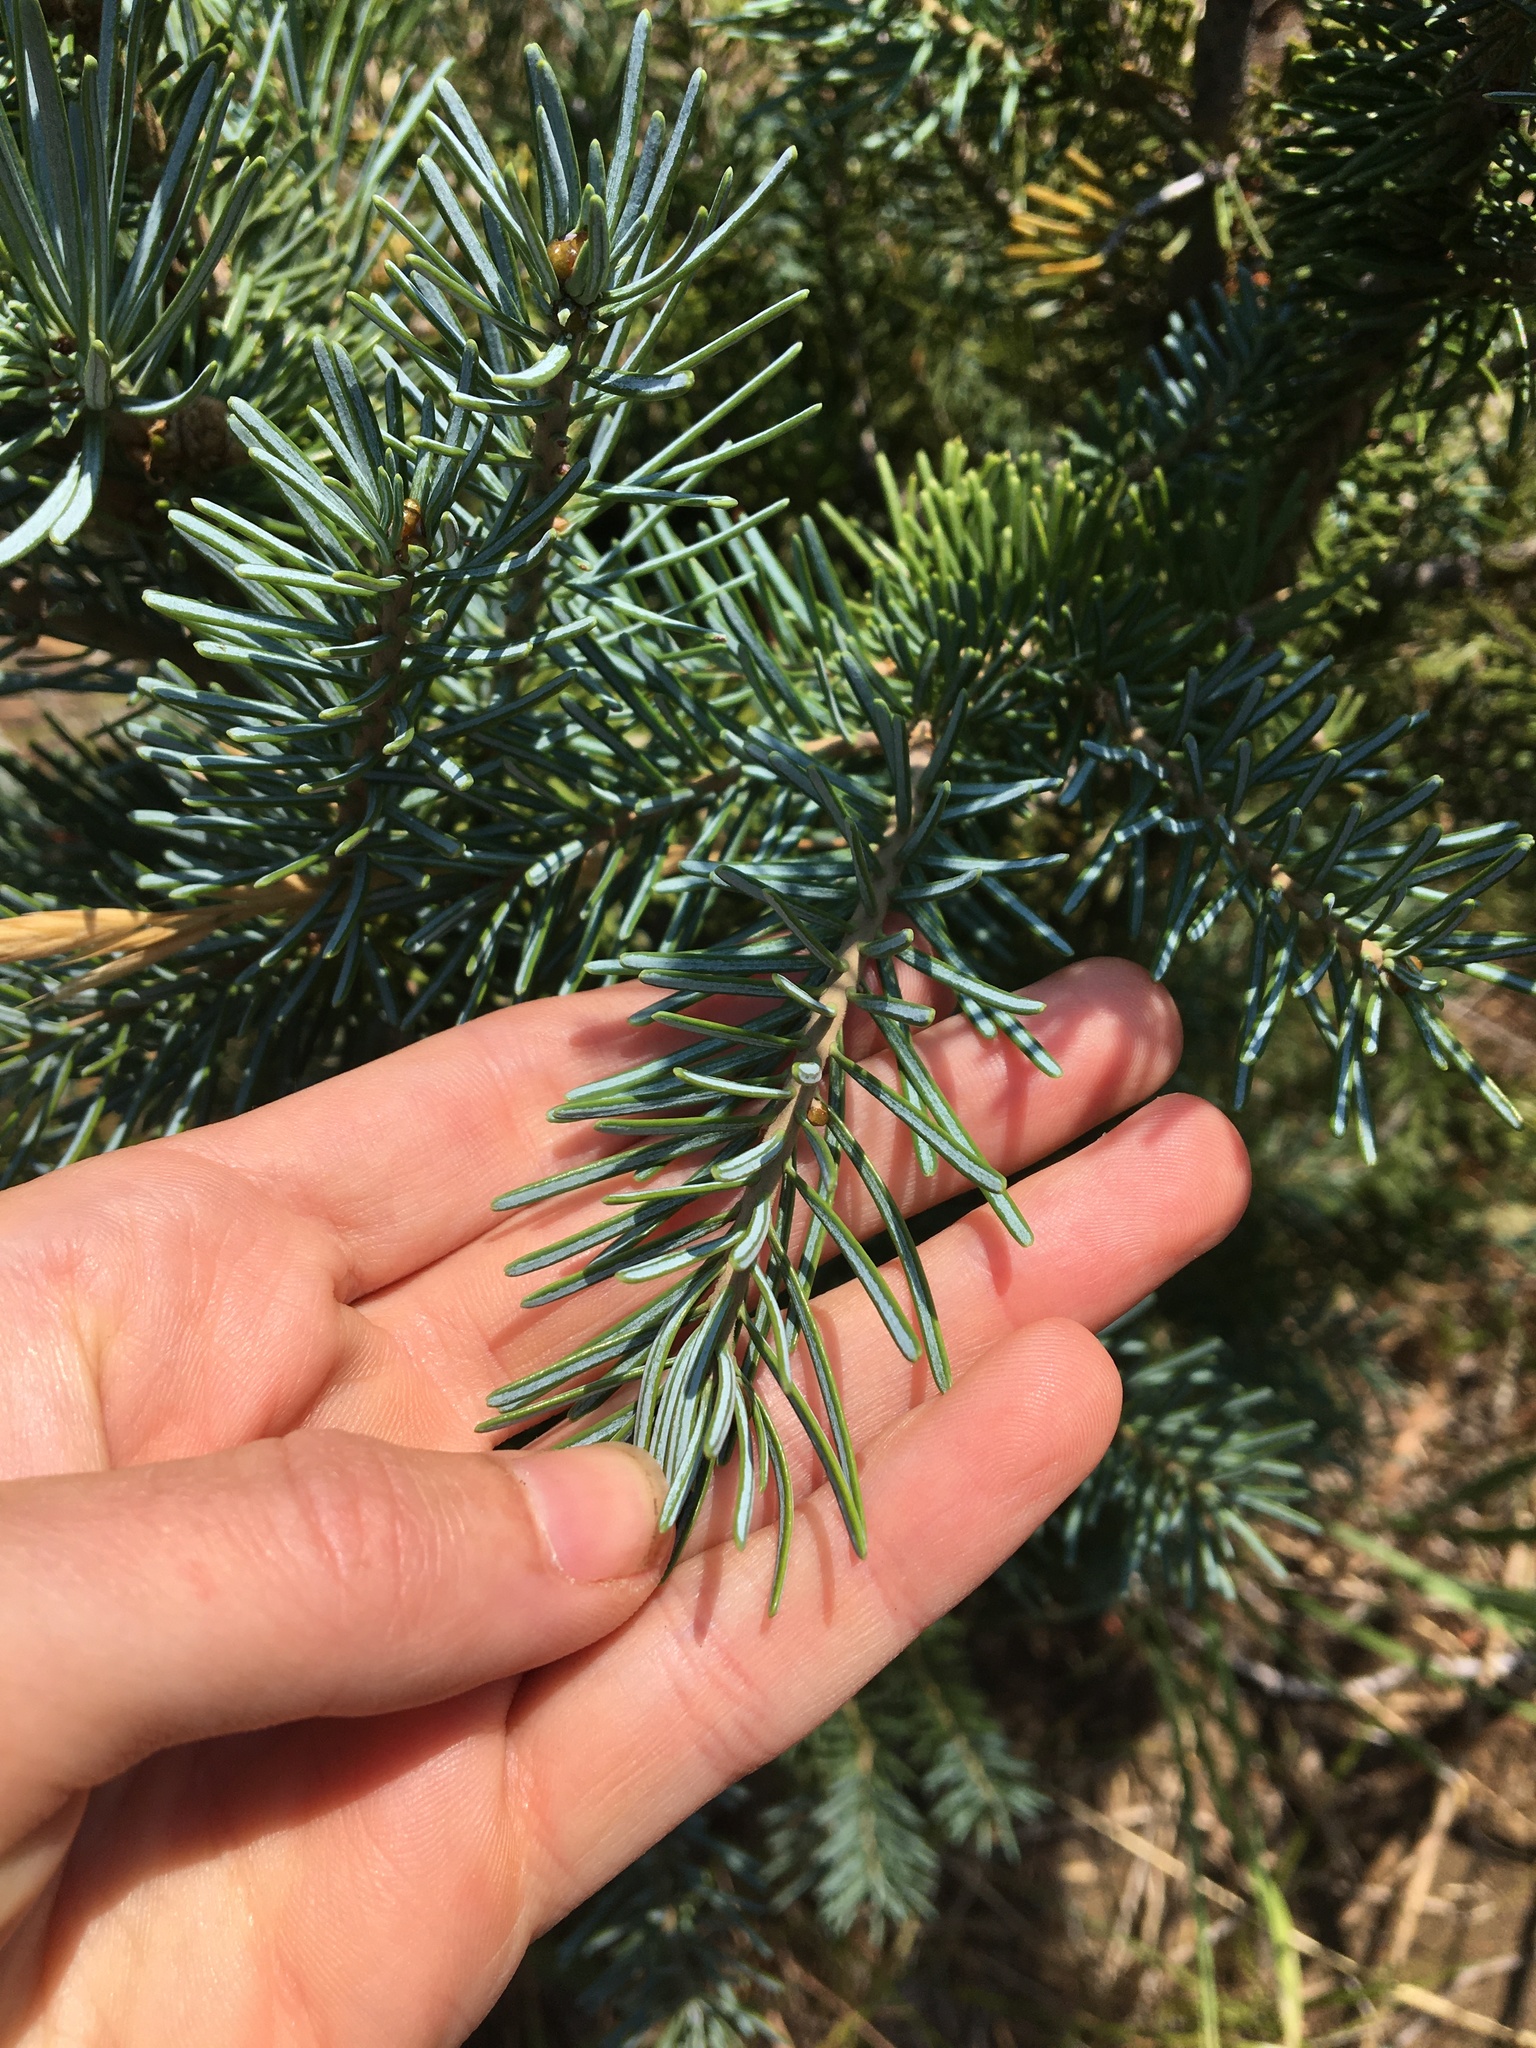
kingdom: Plantae
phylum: Tracheophyta
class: Pinopsida
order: Pinales
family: Pinaceae
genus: Abies
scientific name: Abies lasiocarpa
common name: Subalpine fir
